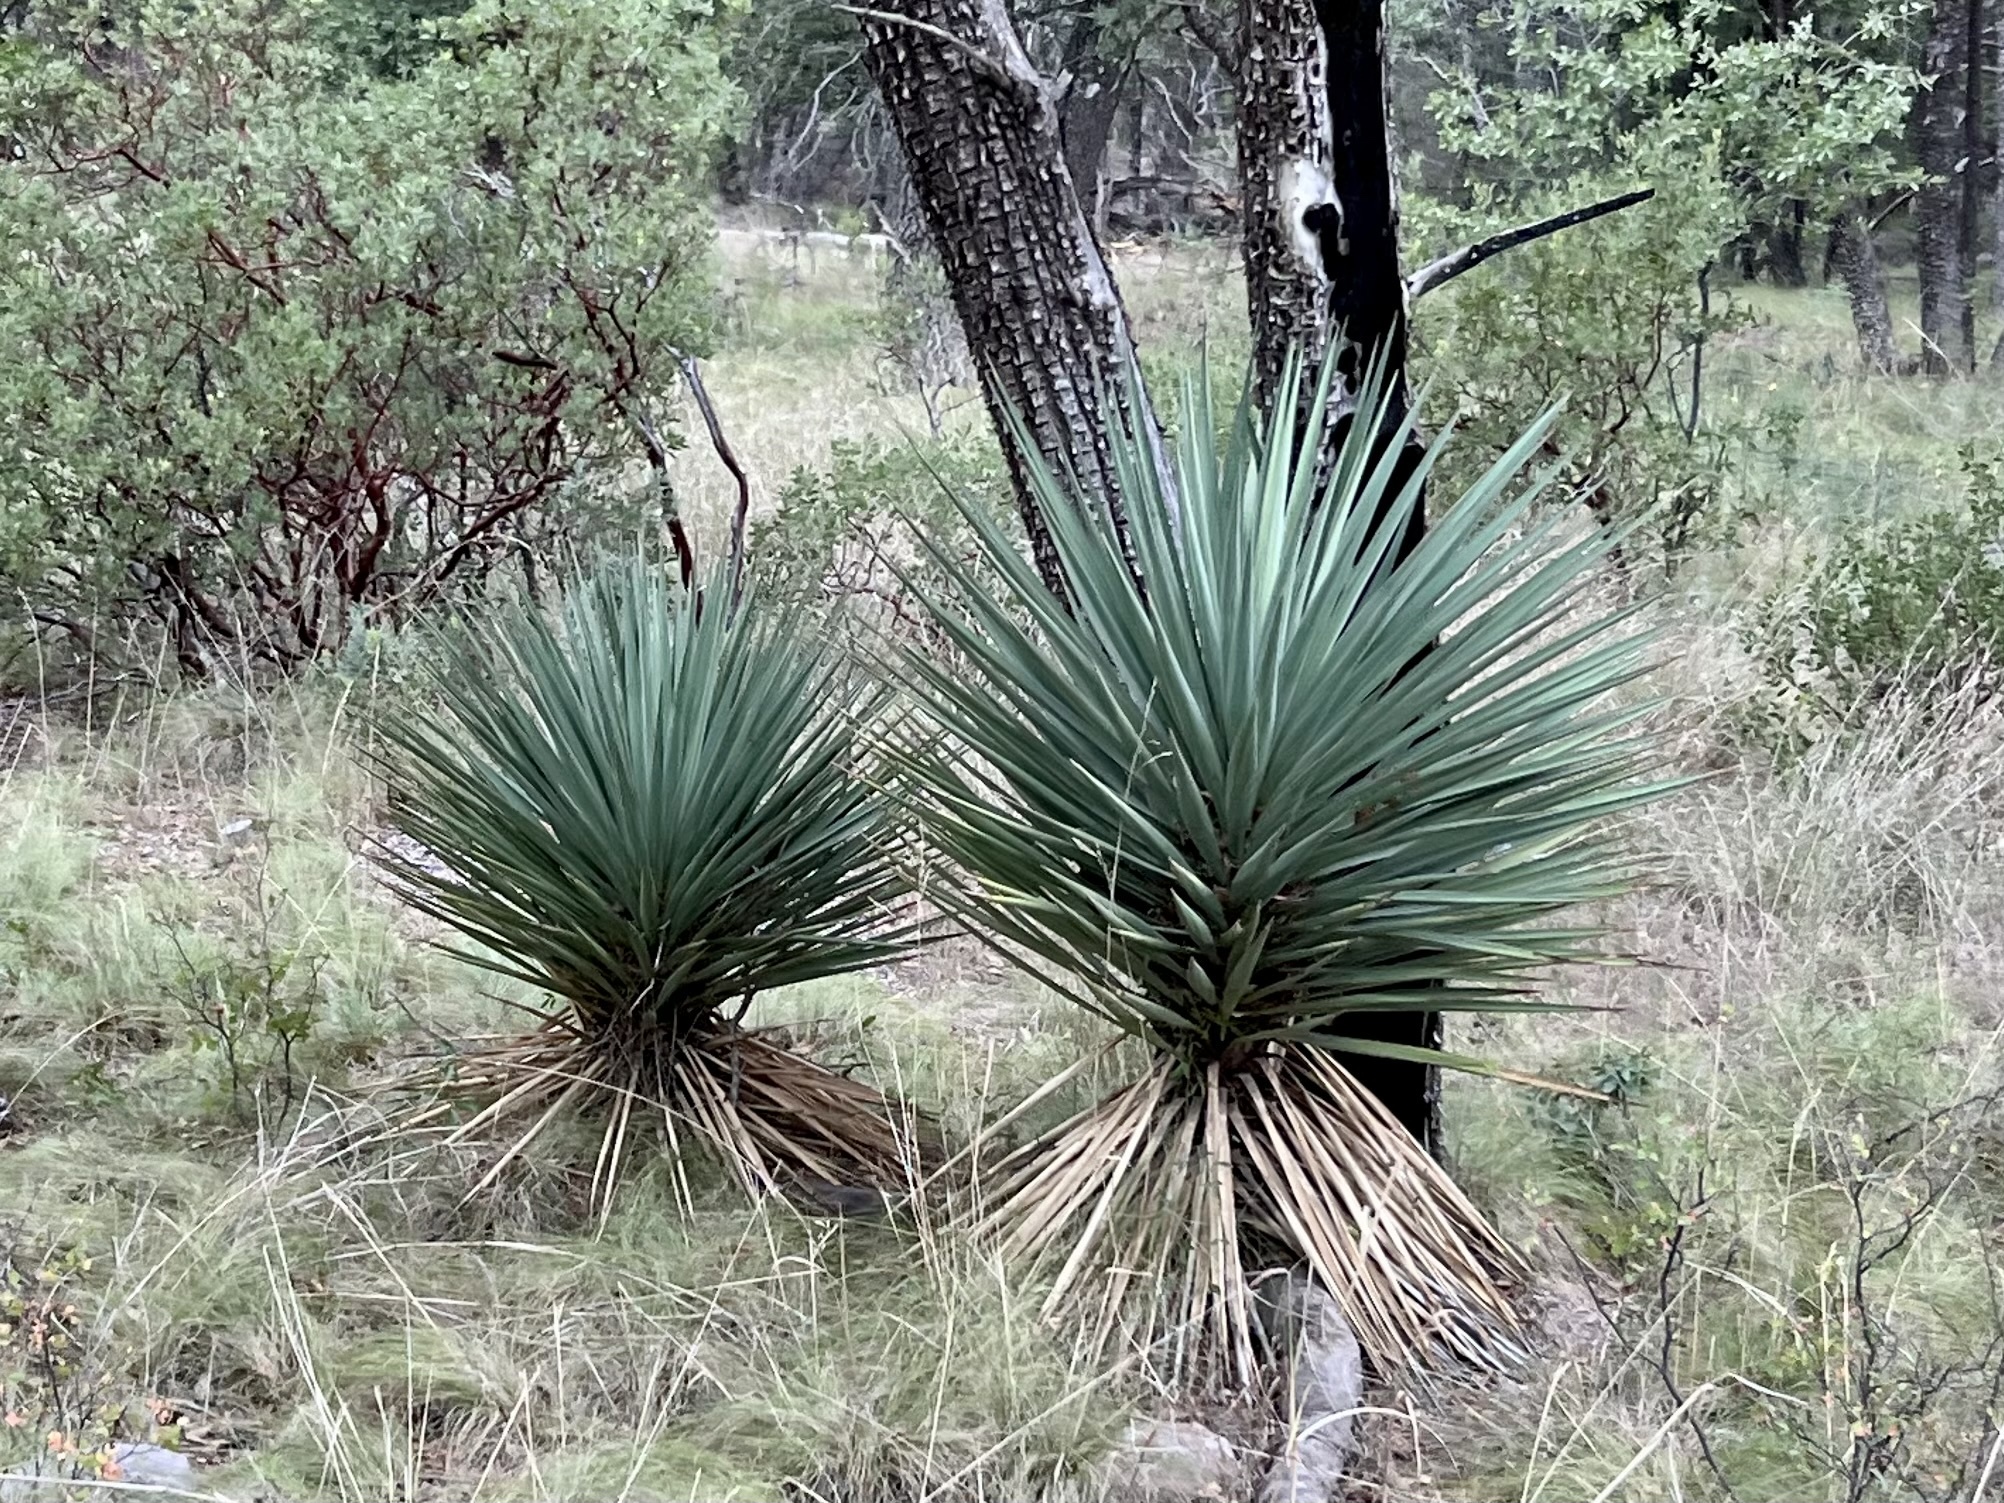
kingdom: Plantae
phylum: Tracheophyta
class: Liliopsida
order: Asparagales
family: Asparagaceae
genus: Yucca
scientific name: Yucca schottii
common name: Hoary yucca
